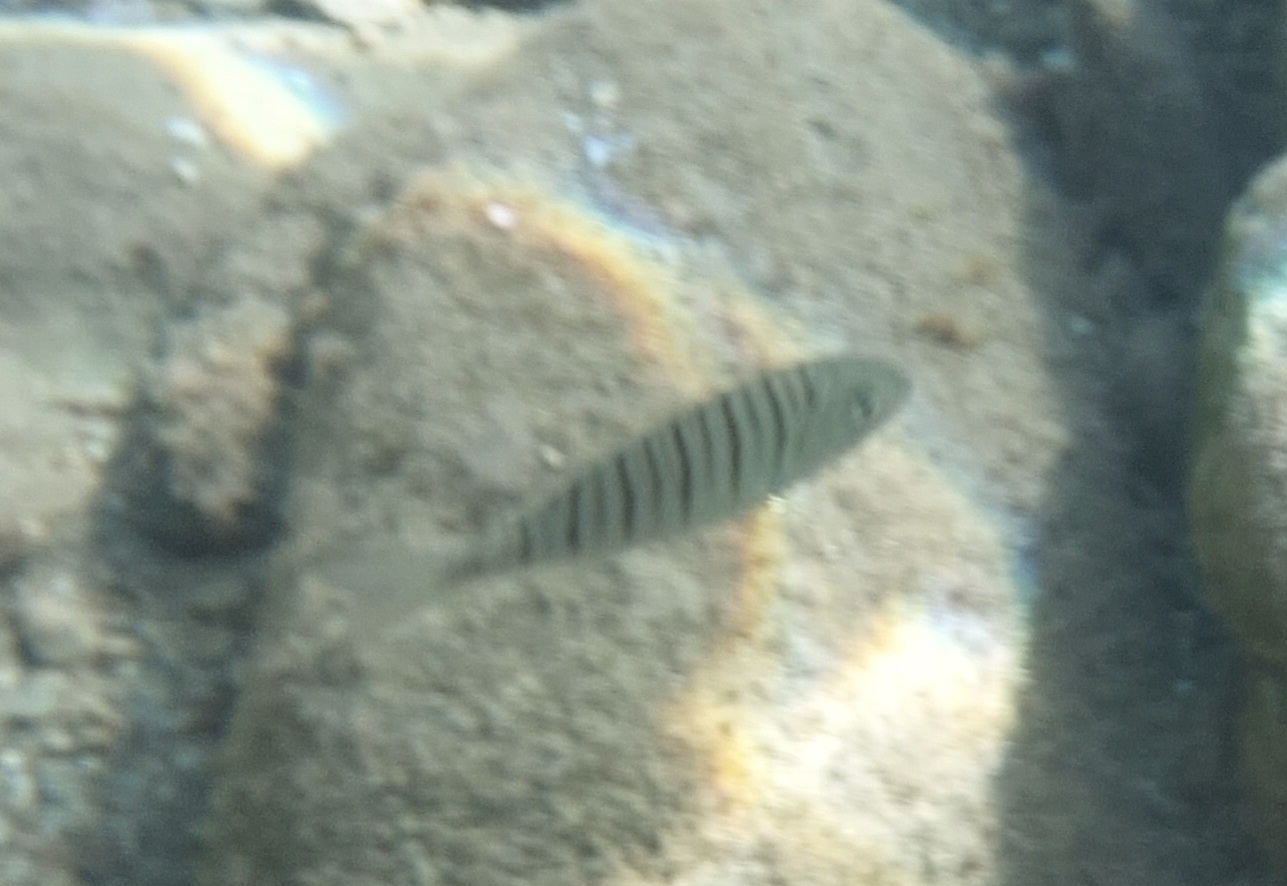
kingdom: Animalia
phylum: Chordata
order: Perciformes
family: Sparidae
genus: Lithognathus
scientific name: Lithognathus mormyrus
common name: Sand steenbras
